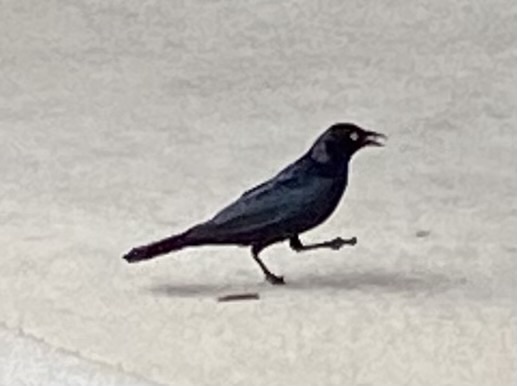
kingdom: Animalia
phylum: Chordata
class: Aves
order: Passeriformes
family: Icteridae
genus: Euphagus
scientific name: Euphagus cyanocephalus
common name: Brewer's blackbird
